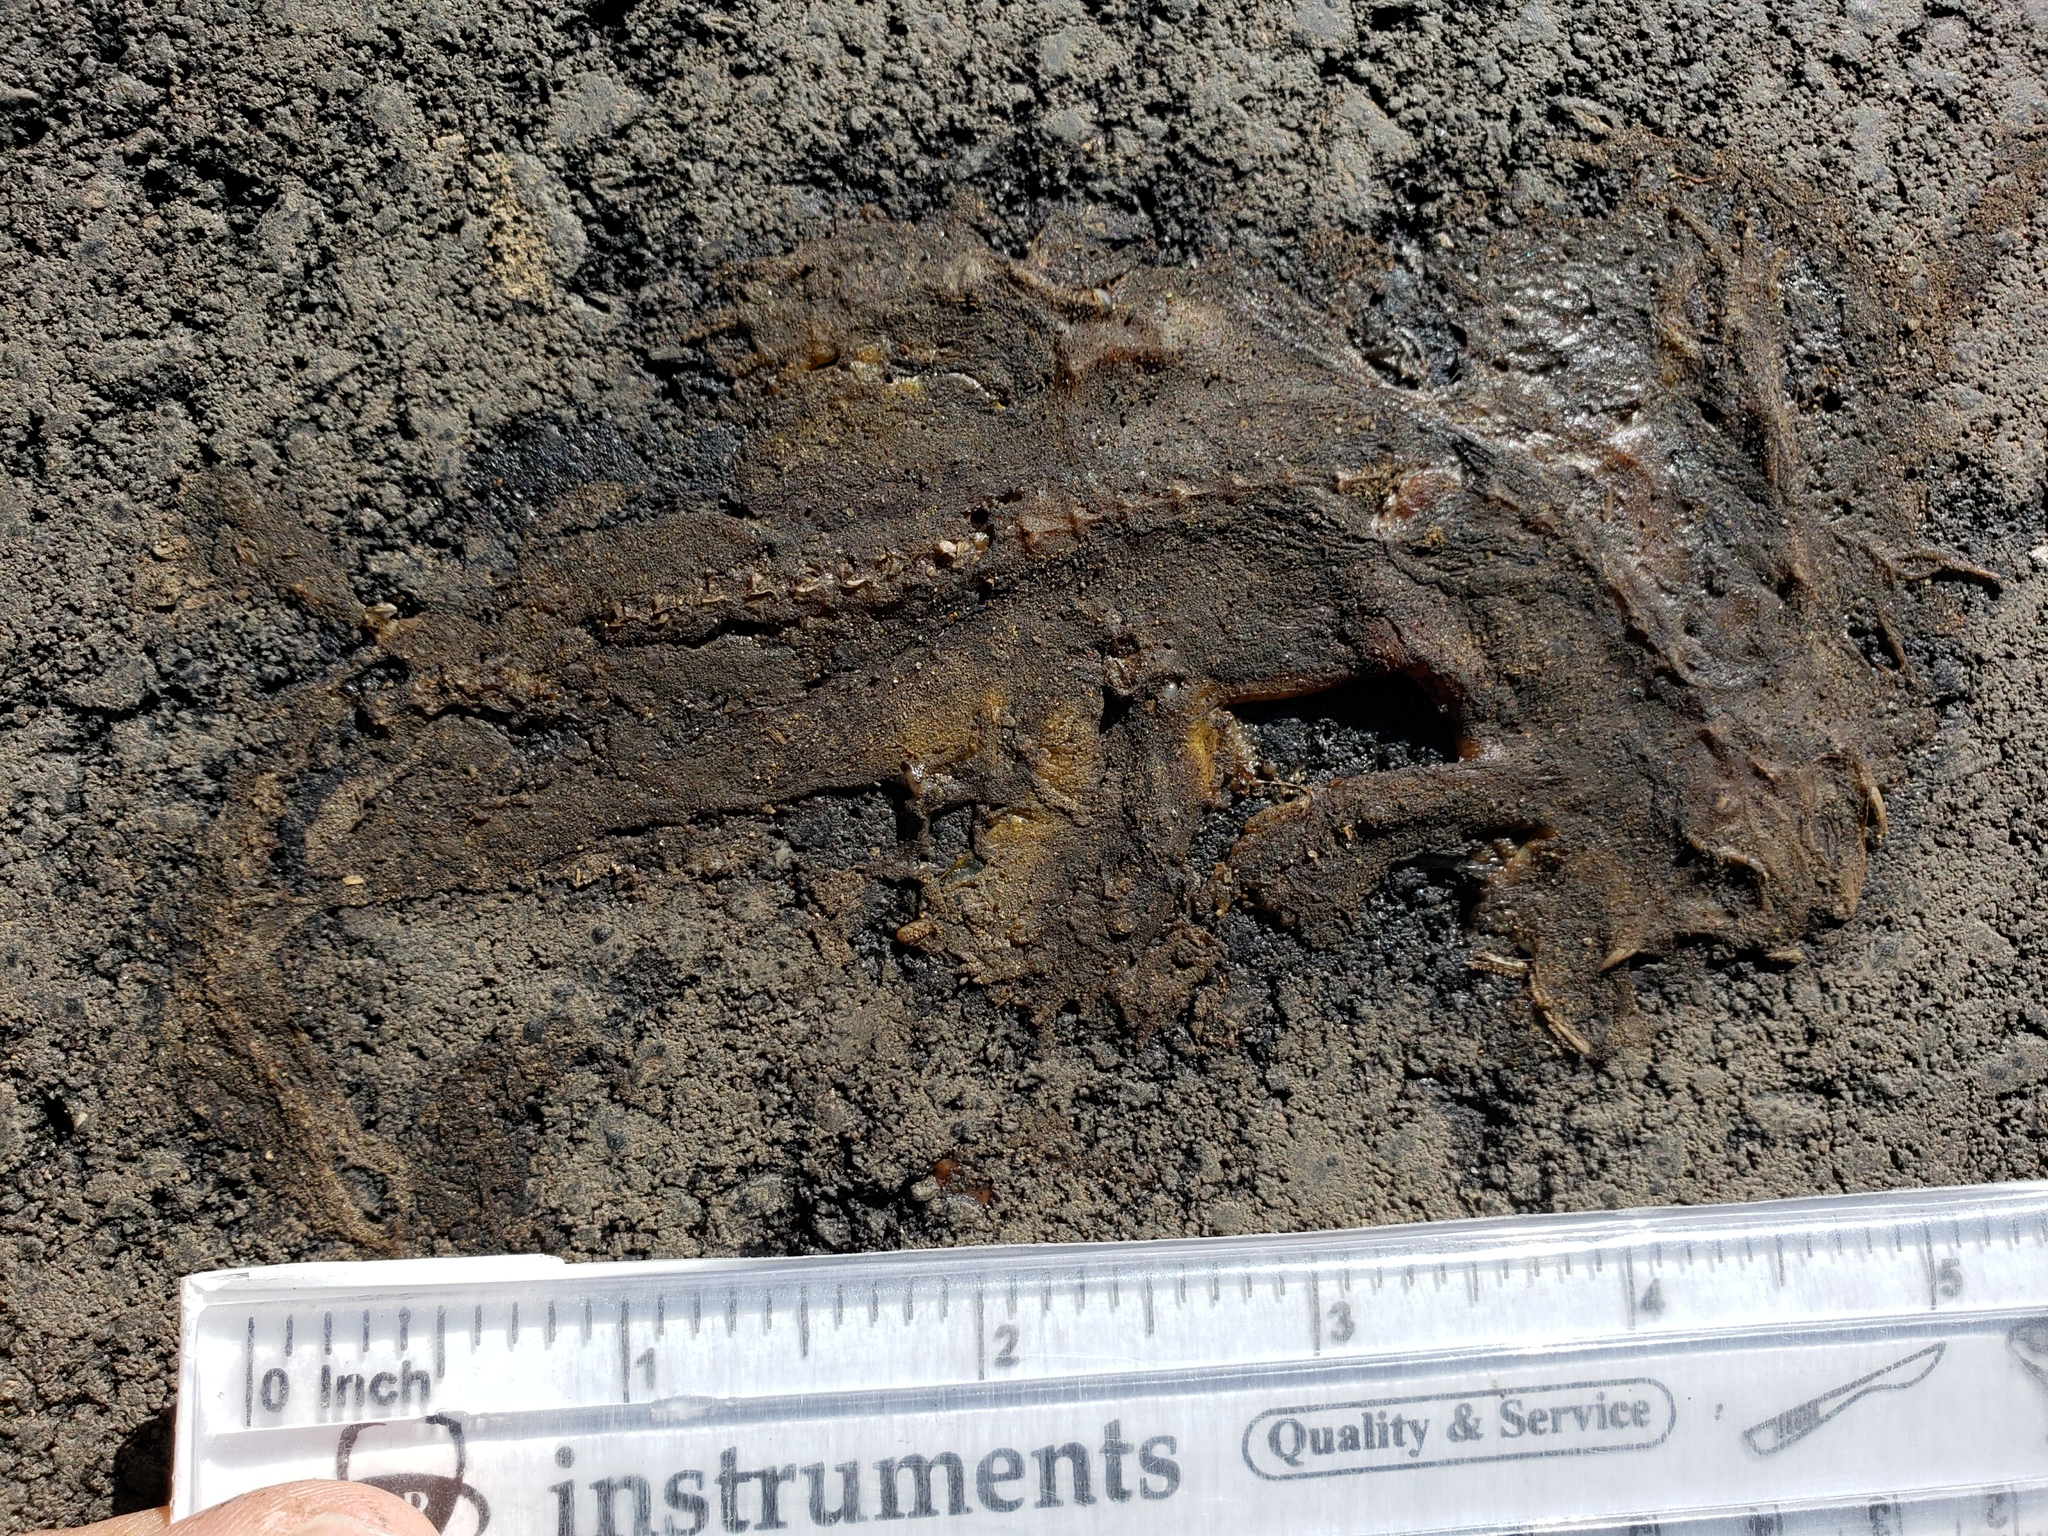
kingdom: Animalia
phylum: Chordata
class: Amphibia
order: Caudata
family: Salamandridae
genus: Taricha
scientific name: Taricha
